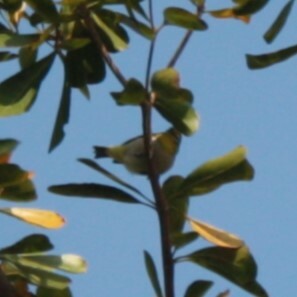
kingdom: Animalia
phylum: Chordata
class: Aves
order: Passeriformes
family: Zosteropidae
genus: Zosterops
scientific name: Zosterops simplex
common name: Swinhoe's white-eye
